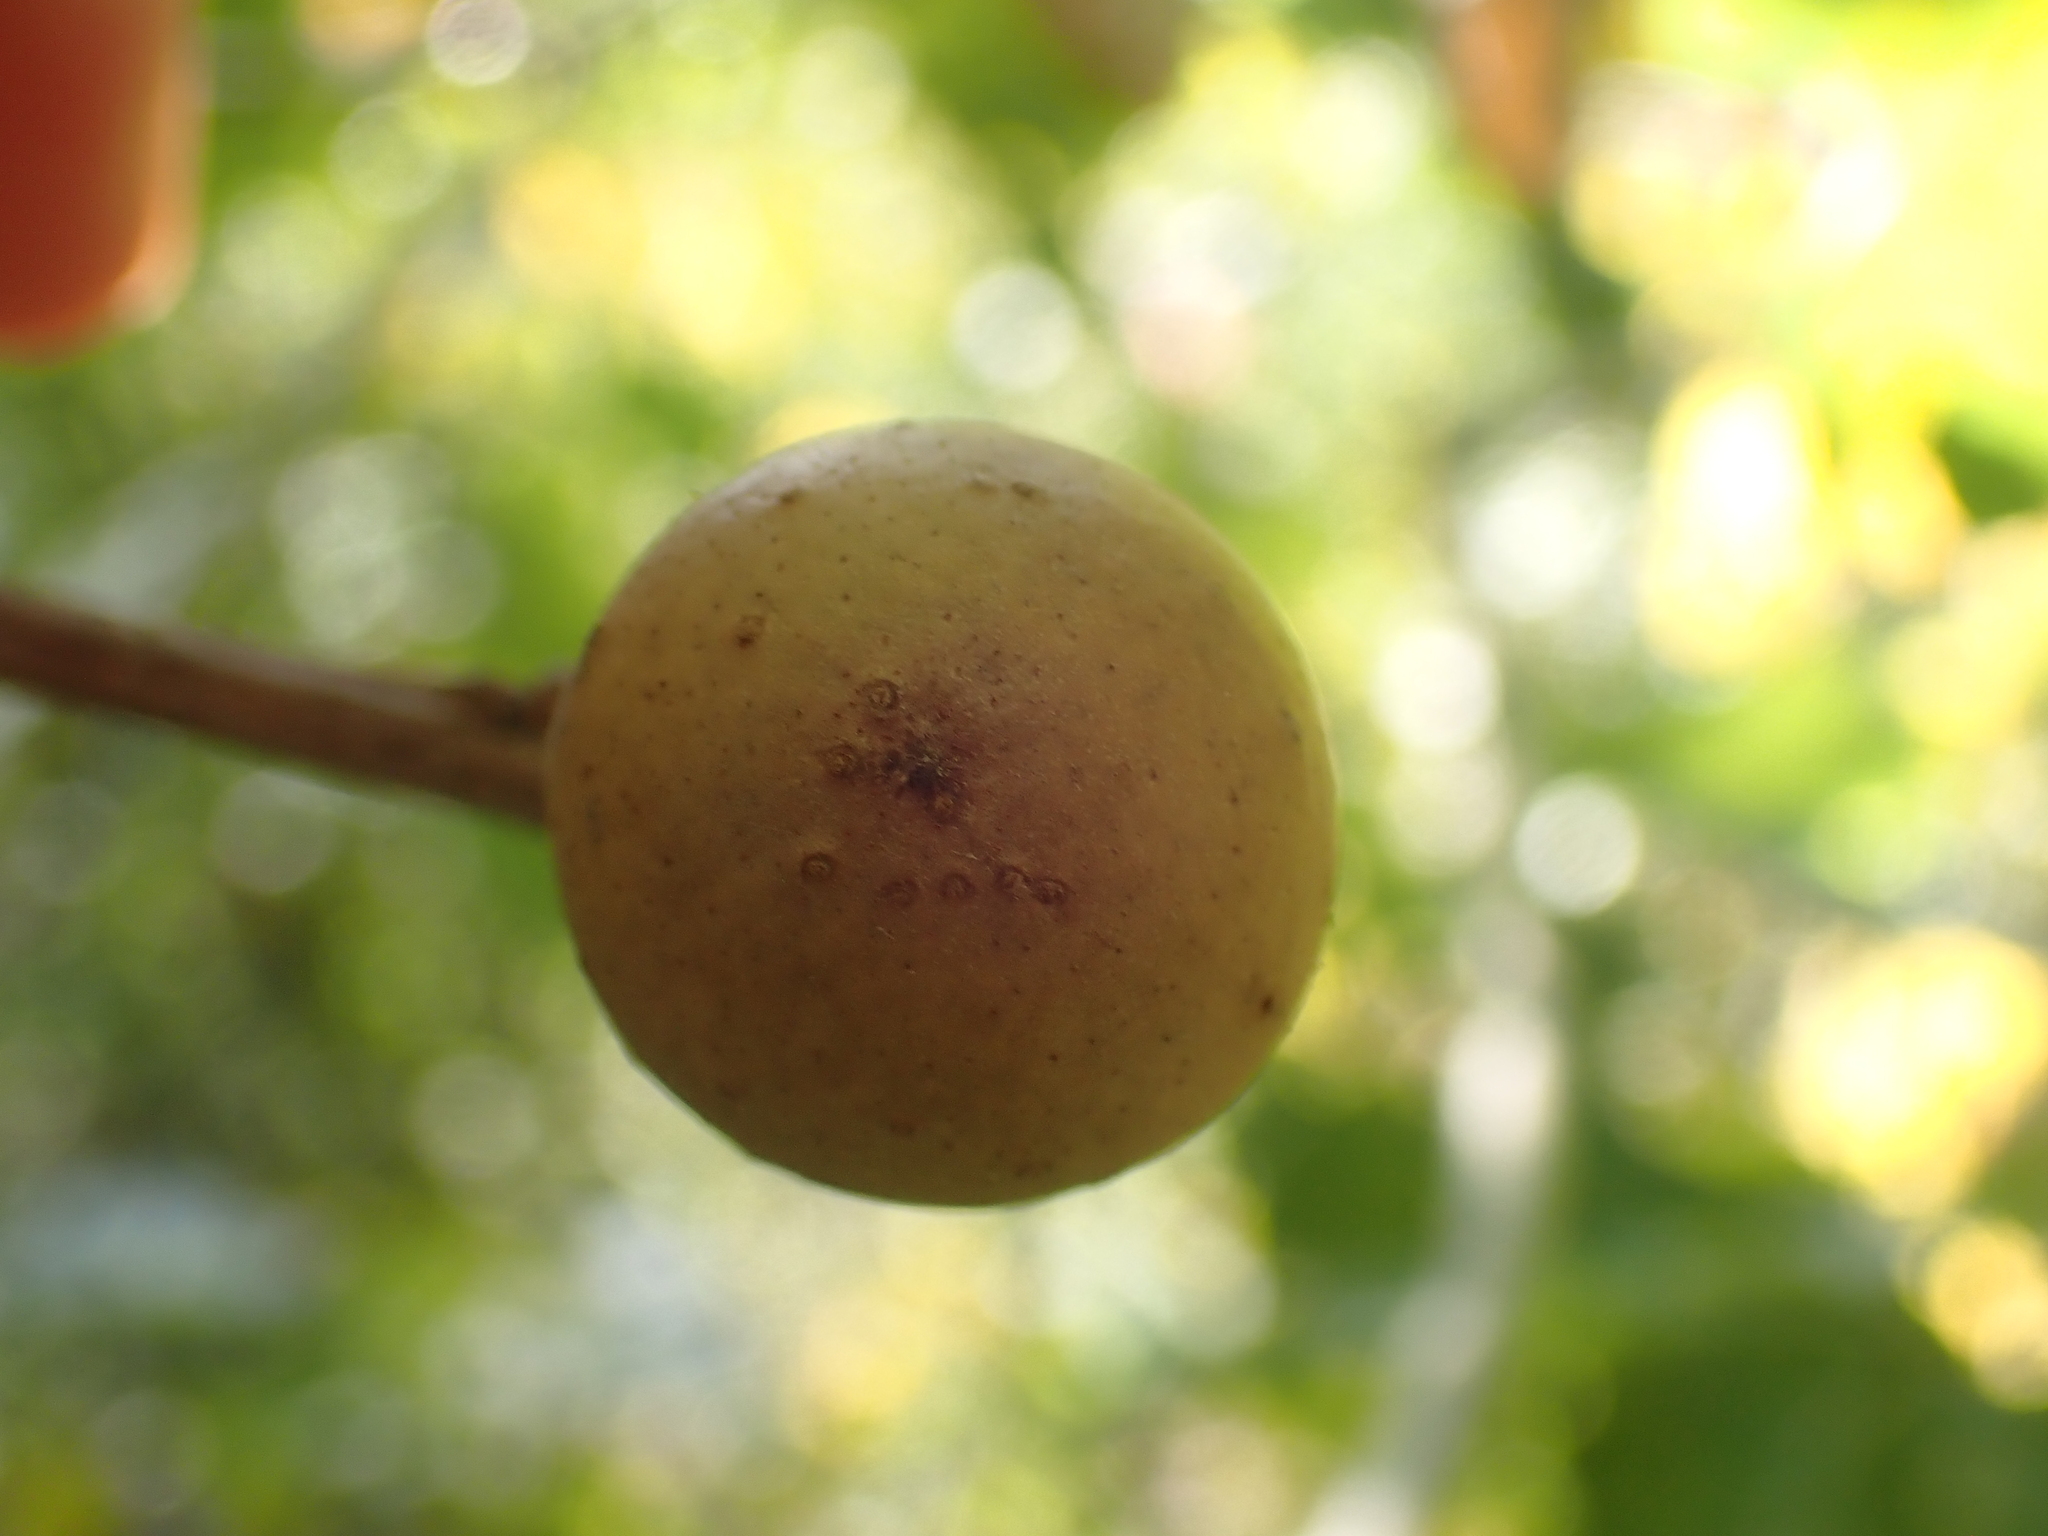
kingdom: Animalia
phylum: Arthropoda
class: Insecta
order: Hymenoptera
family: Cynipidae
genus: Andricus
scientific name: Andricus kollari
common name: Marble gall
